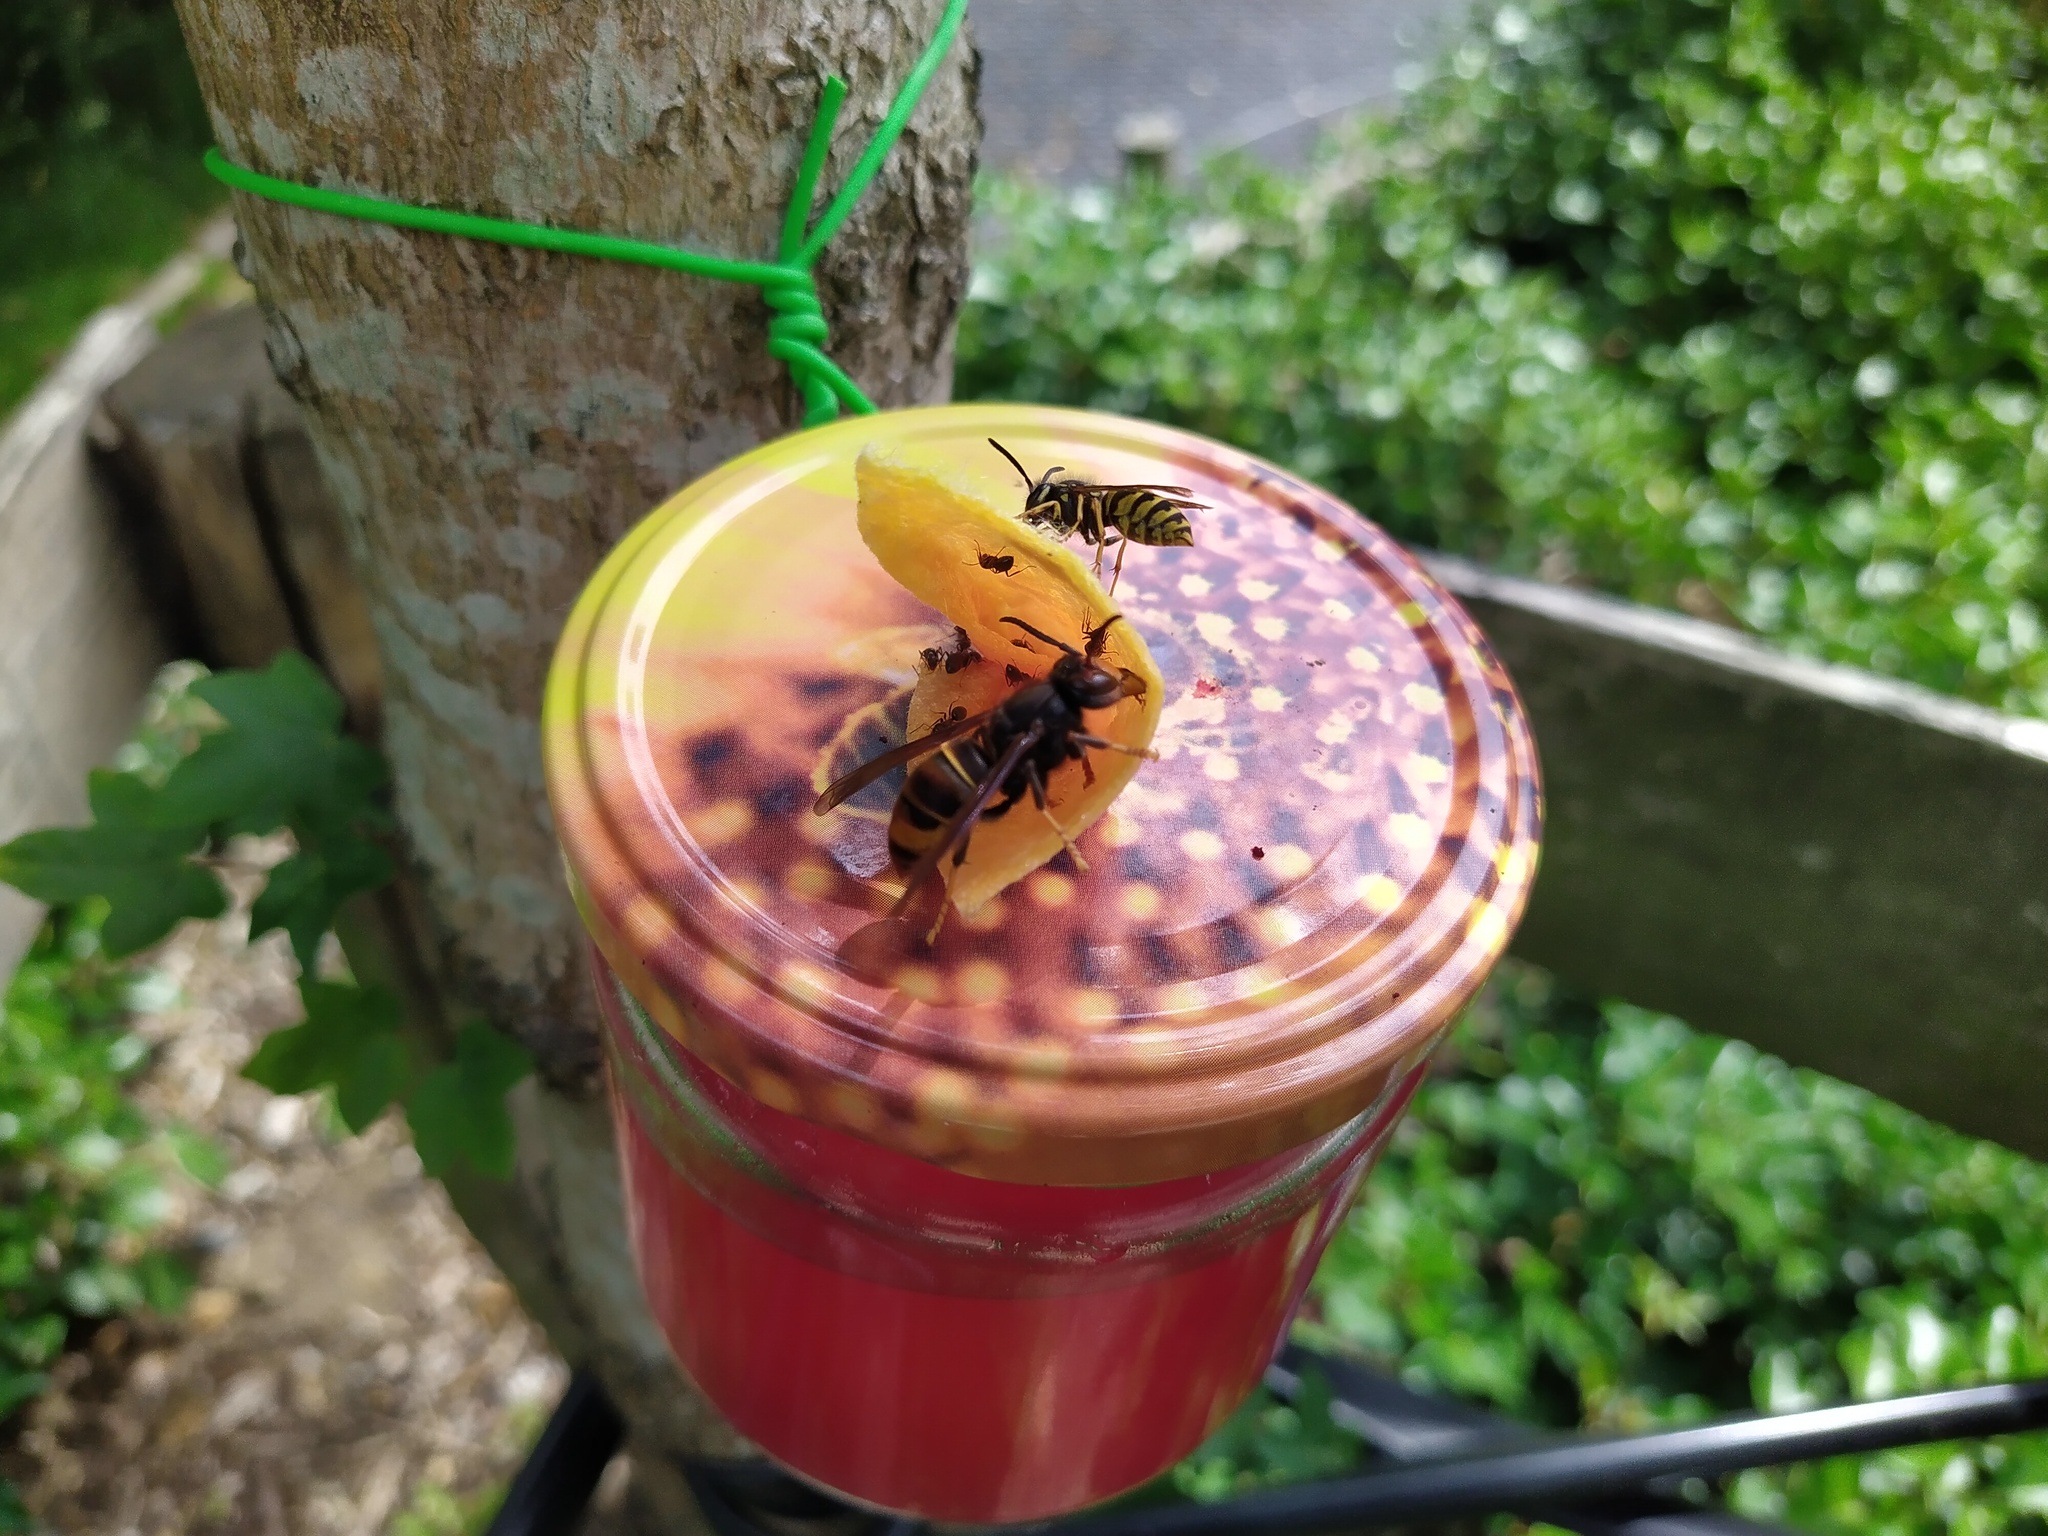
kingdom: Animalia
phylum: Arthropoda
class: Insecta
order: Hymenoptera
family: Vespidae
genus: Vespa
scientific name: Vespa velutina
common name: Asian hornet
